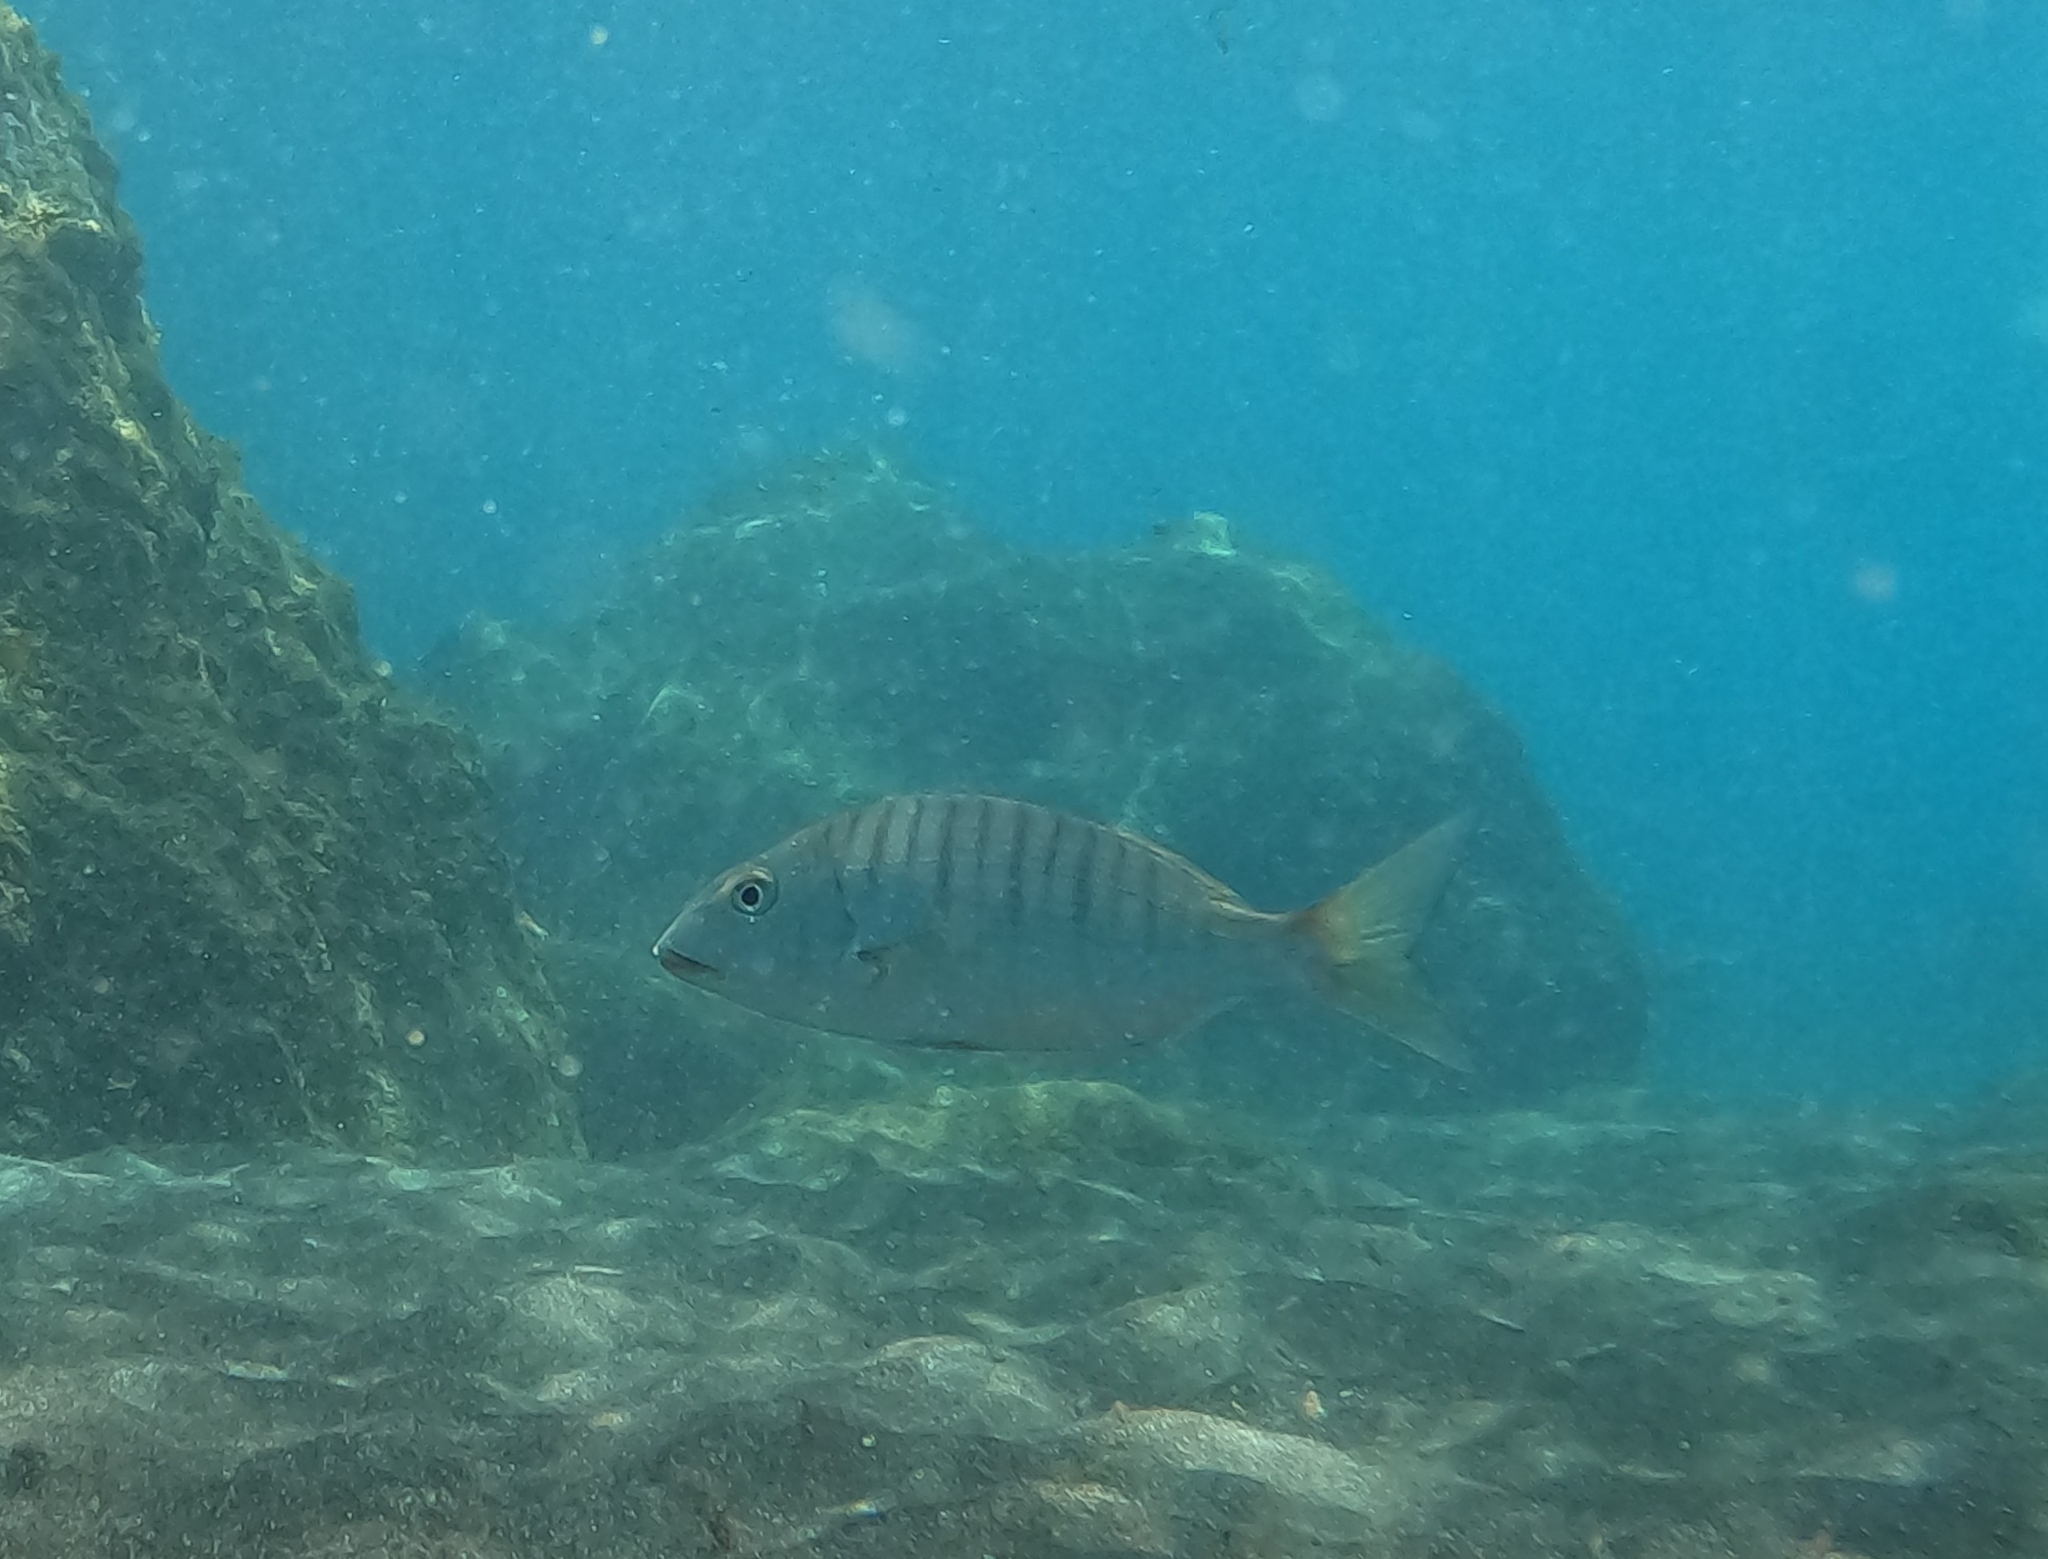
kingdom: Animalia
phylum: Chordata
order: Perciformes
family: Sparidae
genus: Lithognathus
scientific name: Lithognathus mormyrus
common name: Sand steenbras
